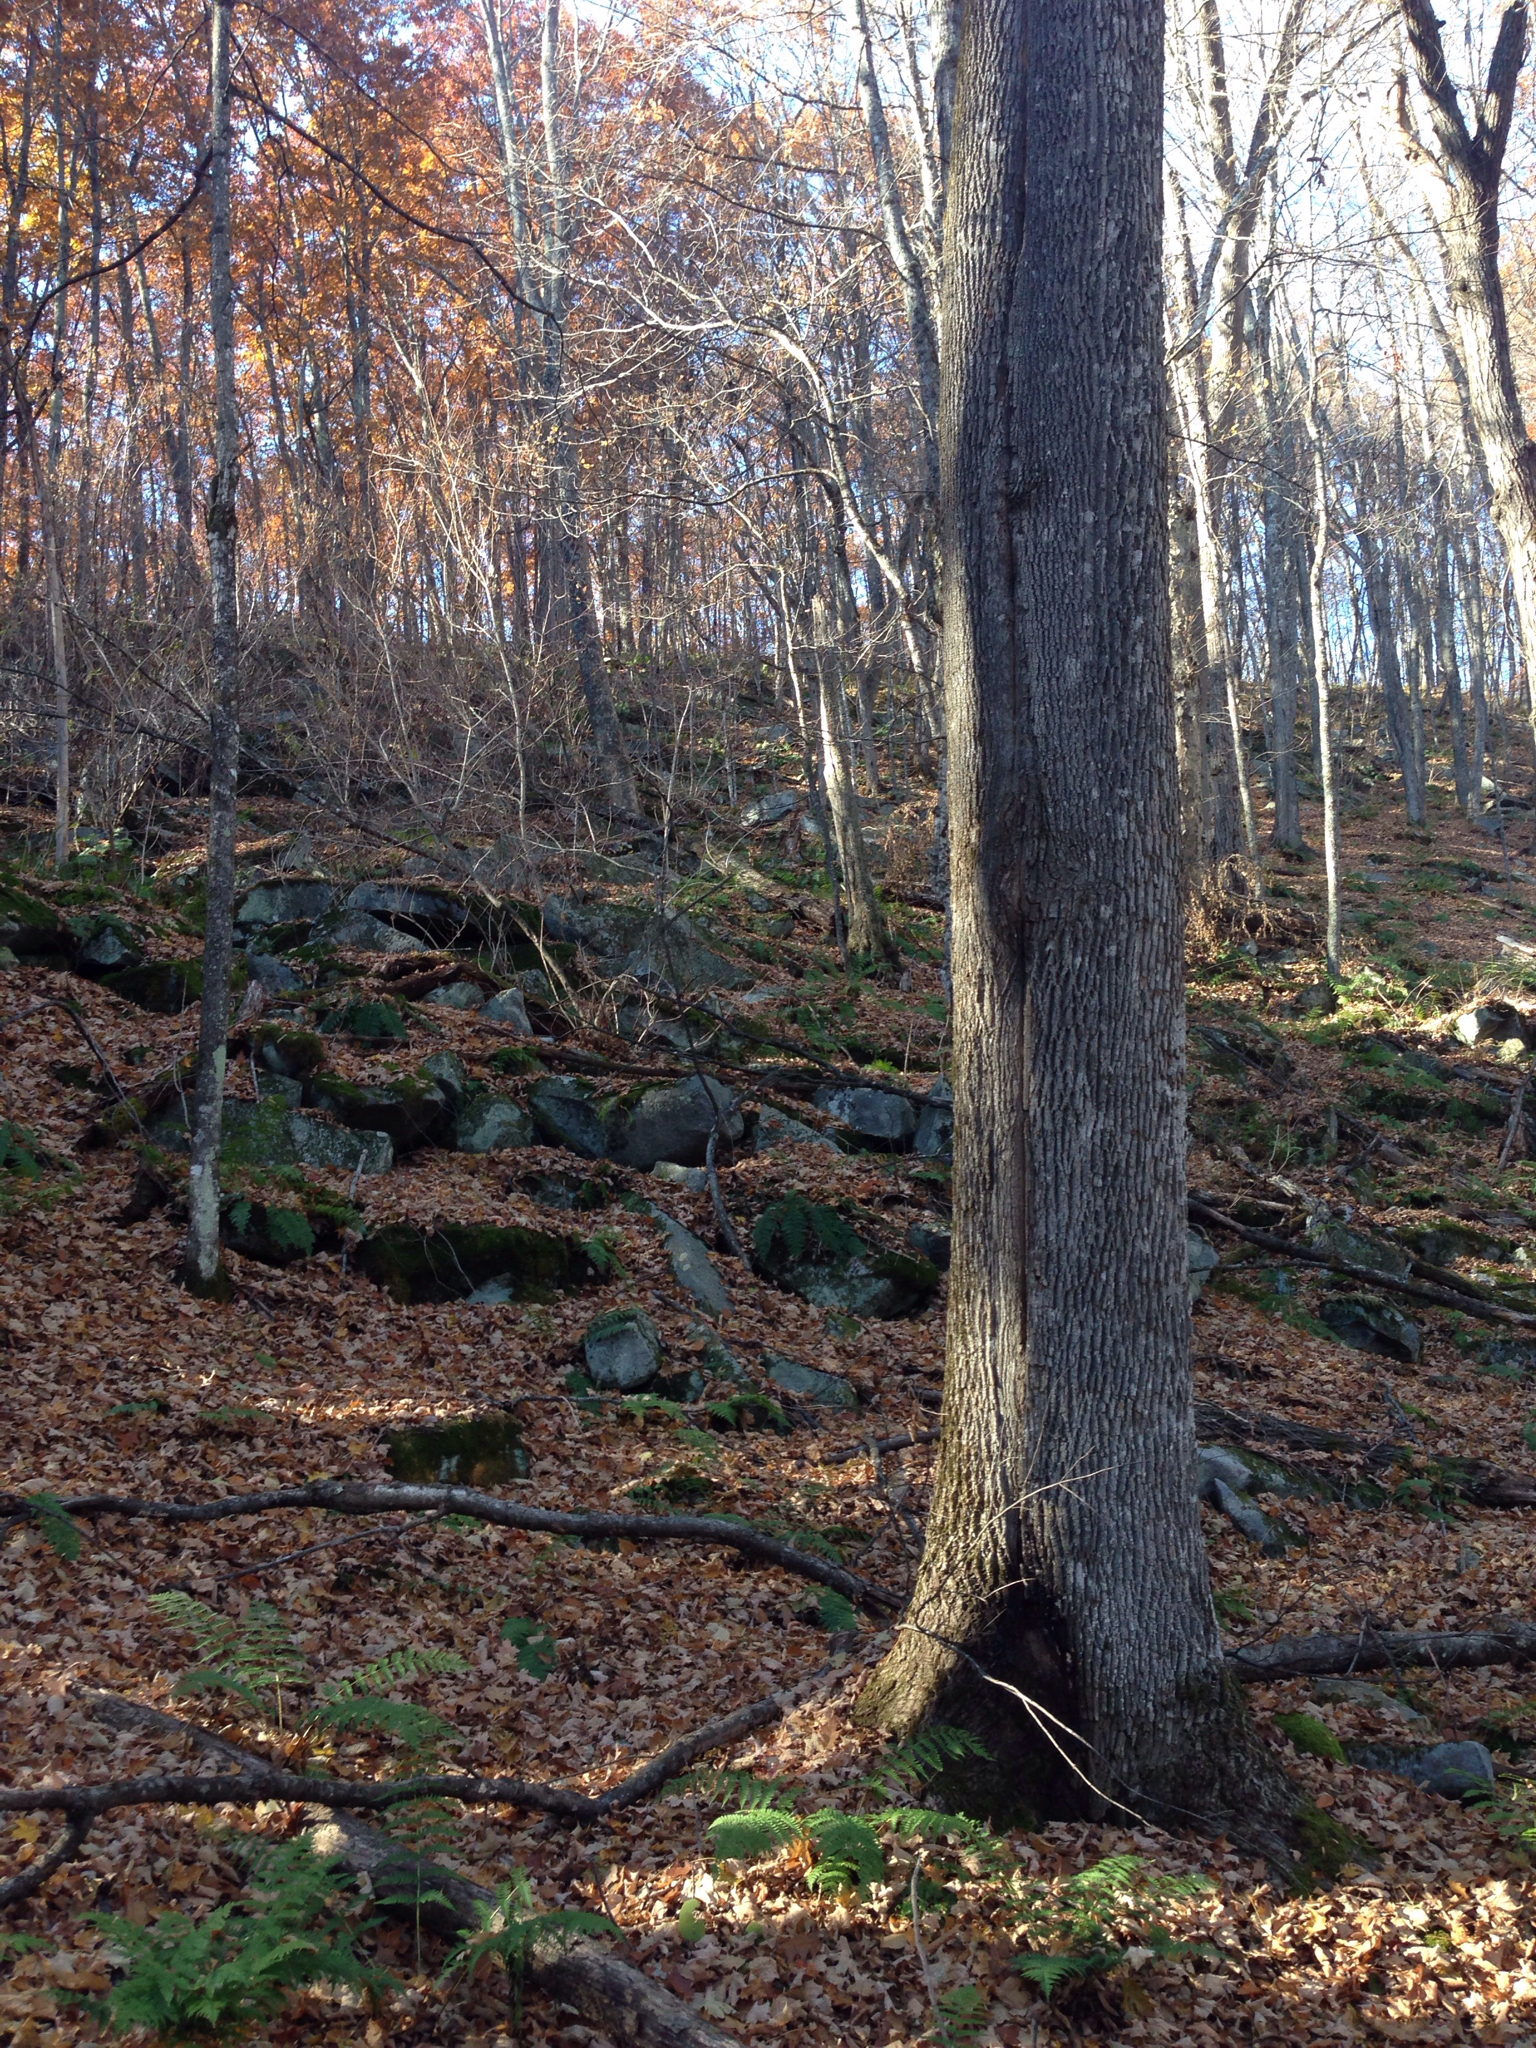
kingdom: Plantae
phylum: Tracheophyta
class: Magnoliopsida
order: Lamiales
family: Oleaceae
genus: Fraxinus
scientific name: Fraxinus americana
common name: White ash
